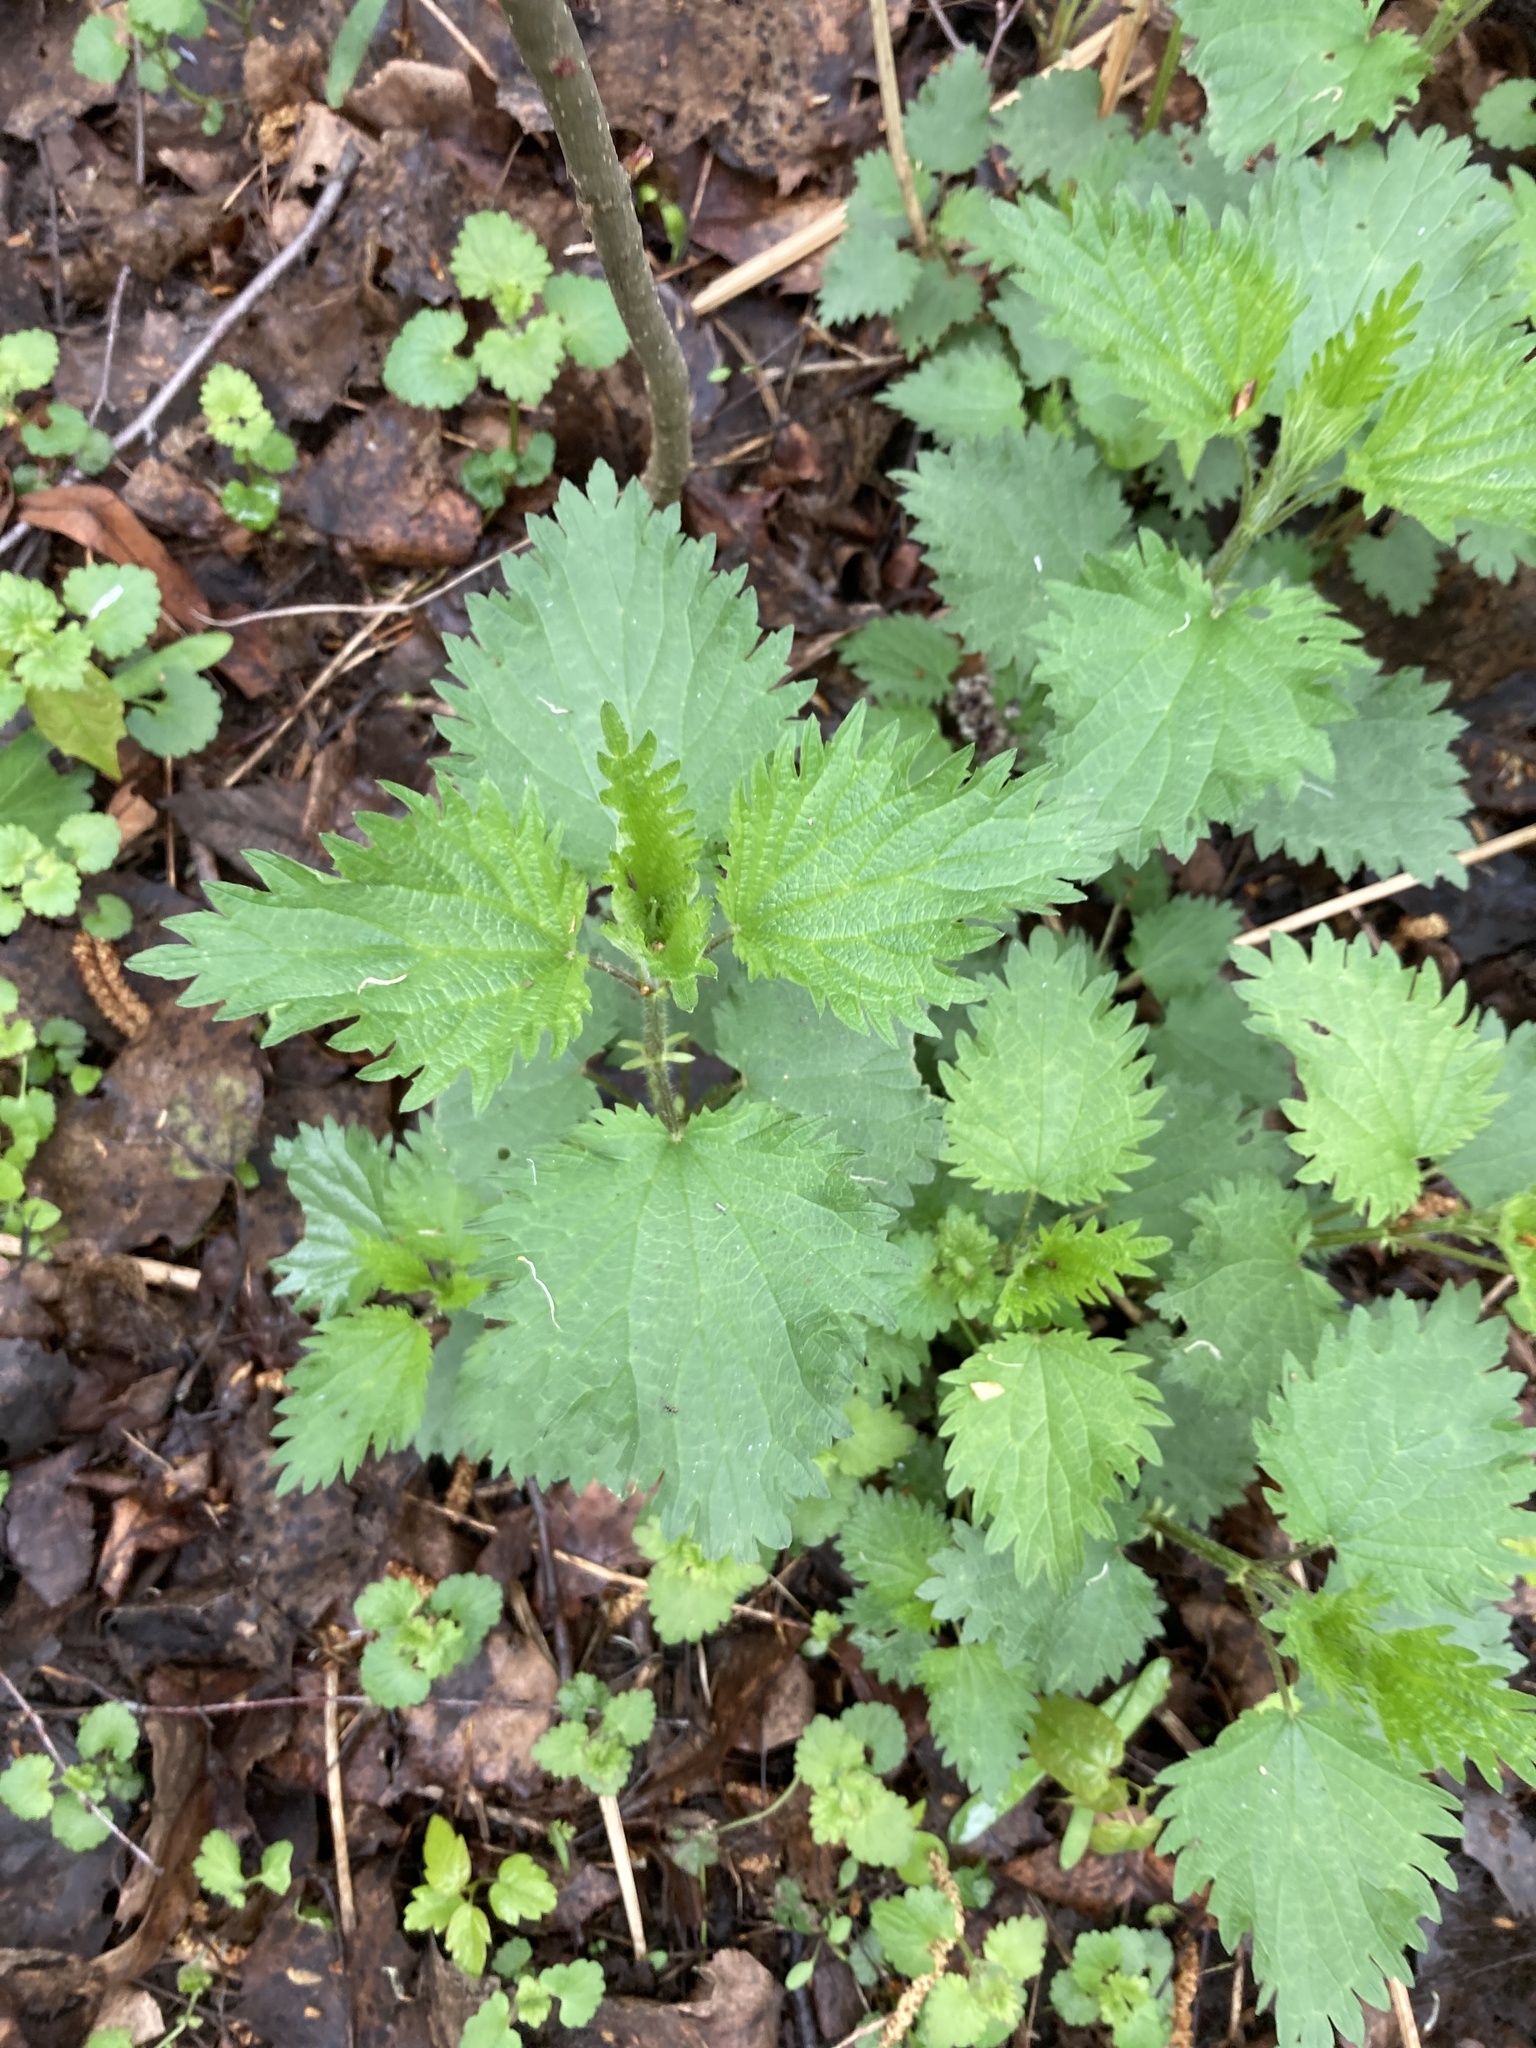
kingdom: Plantae
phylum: Tracheophyta
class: Magnoliopsida
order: Rosales
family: Urticaceae
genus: Urtica
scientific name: Urtica dioica
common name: Common nettle
